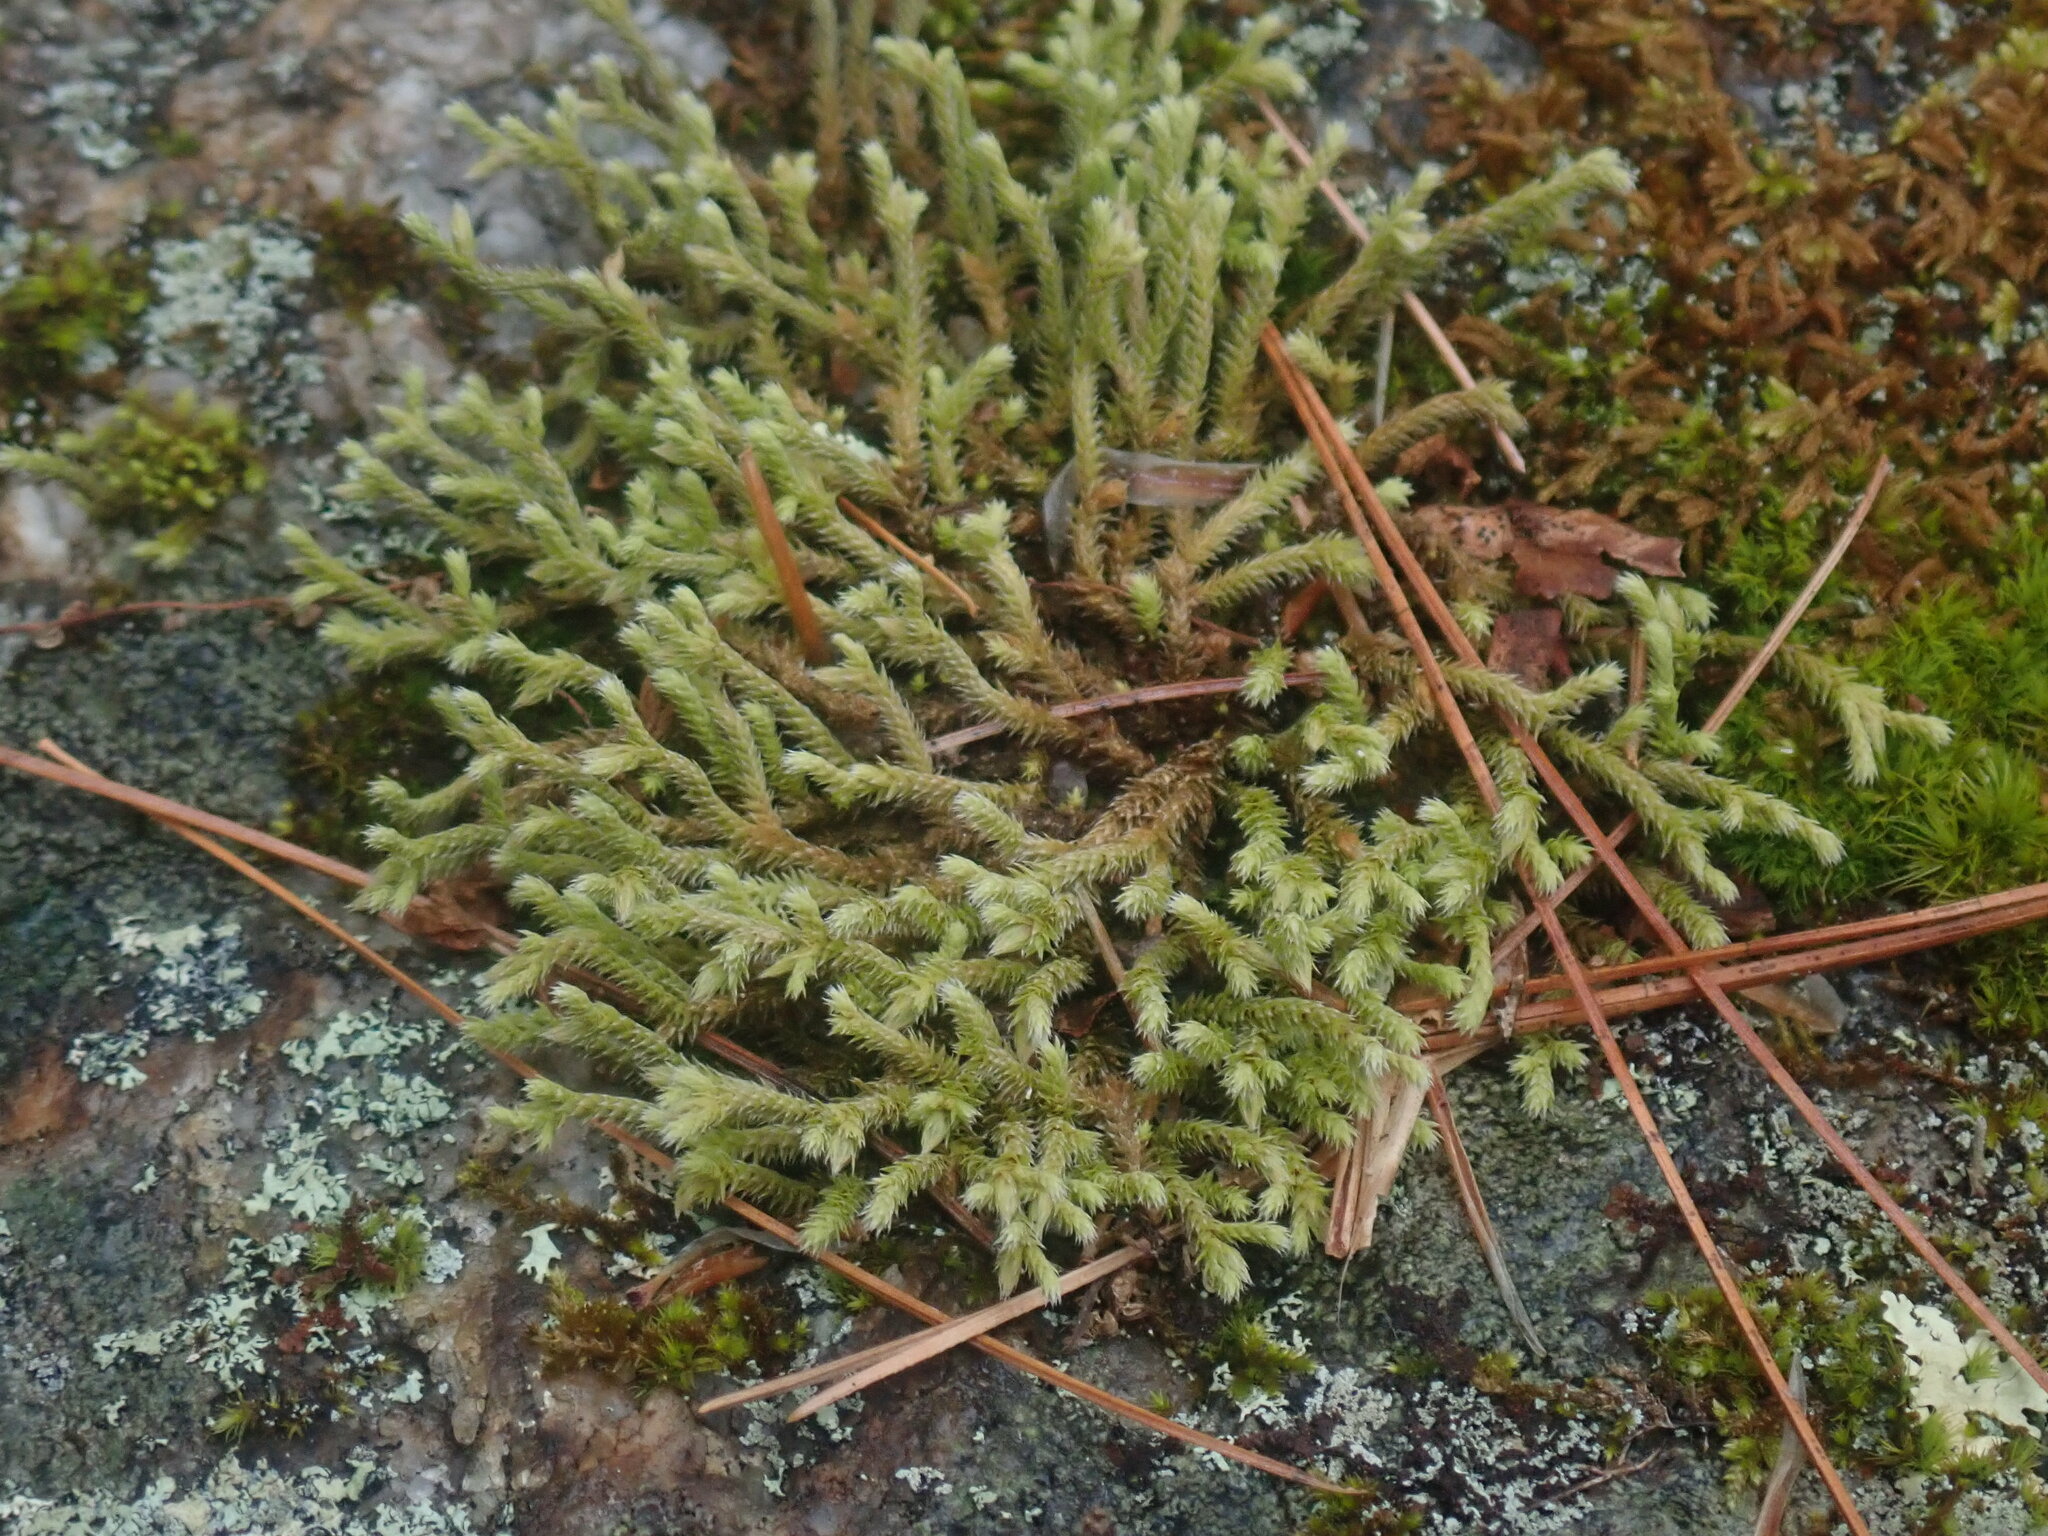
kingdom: Plantae
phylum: Bryophyta
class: Bryopsida
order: Hedwigiales
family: Hedwigiaceae
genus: Hedwigia
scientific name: Hedwigia ciliata
